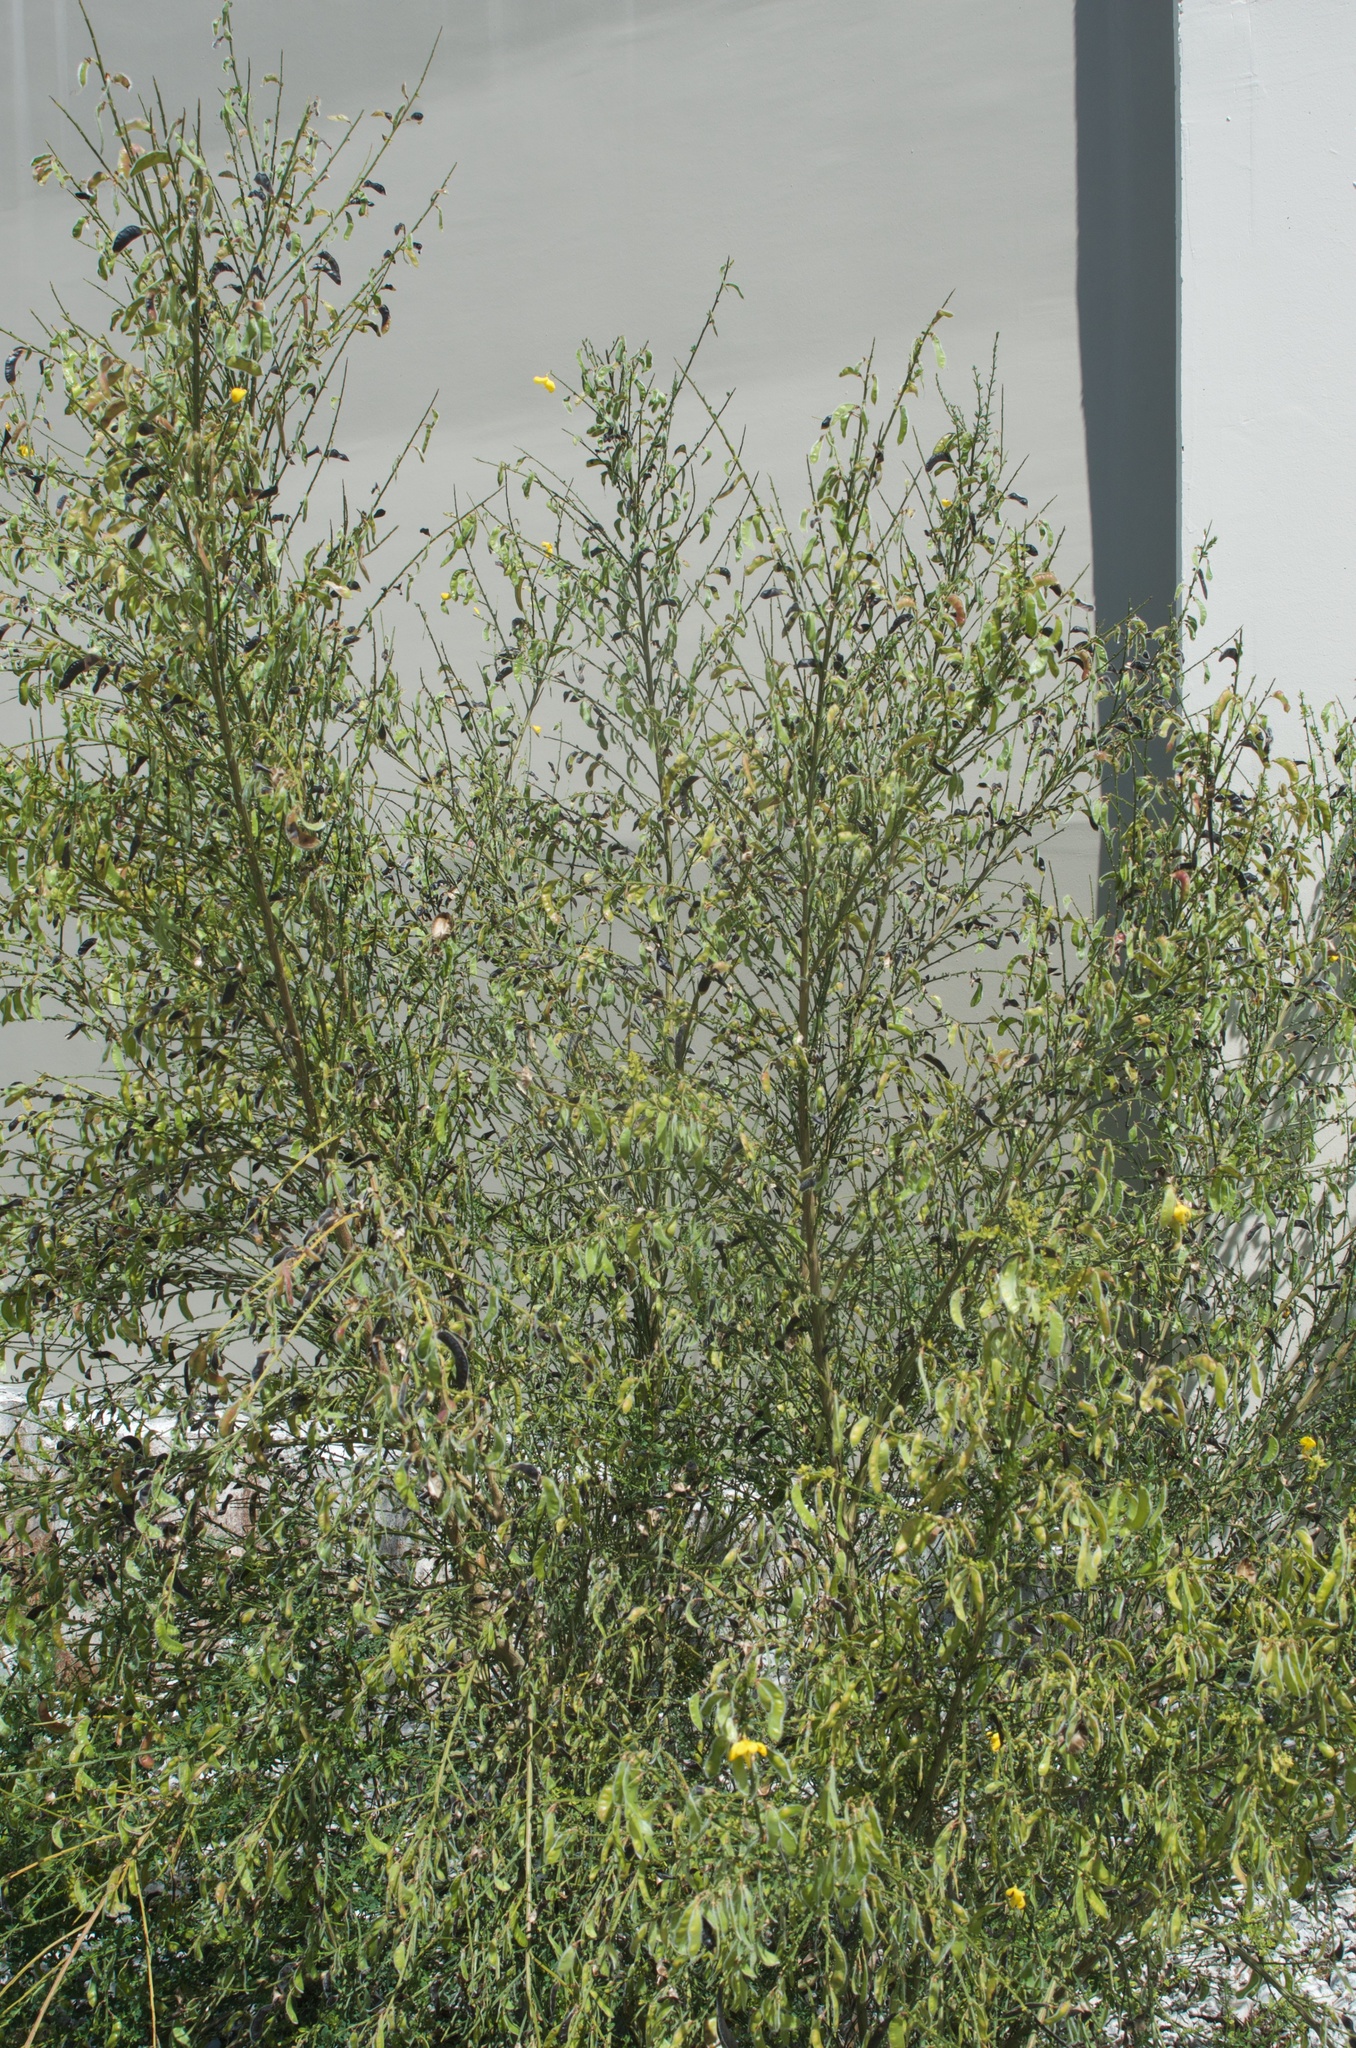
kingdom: Plantae
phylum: Tracheophyta
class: Magnoliopsida
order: Fabales
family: Fabaceae
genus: Cytisus
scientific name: Cytisus scoparius
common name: Scotch broom
